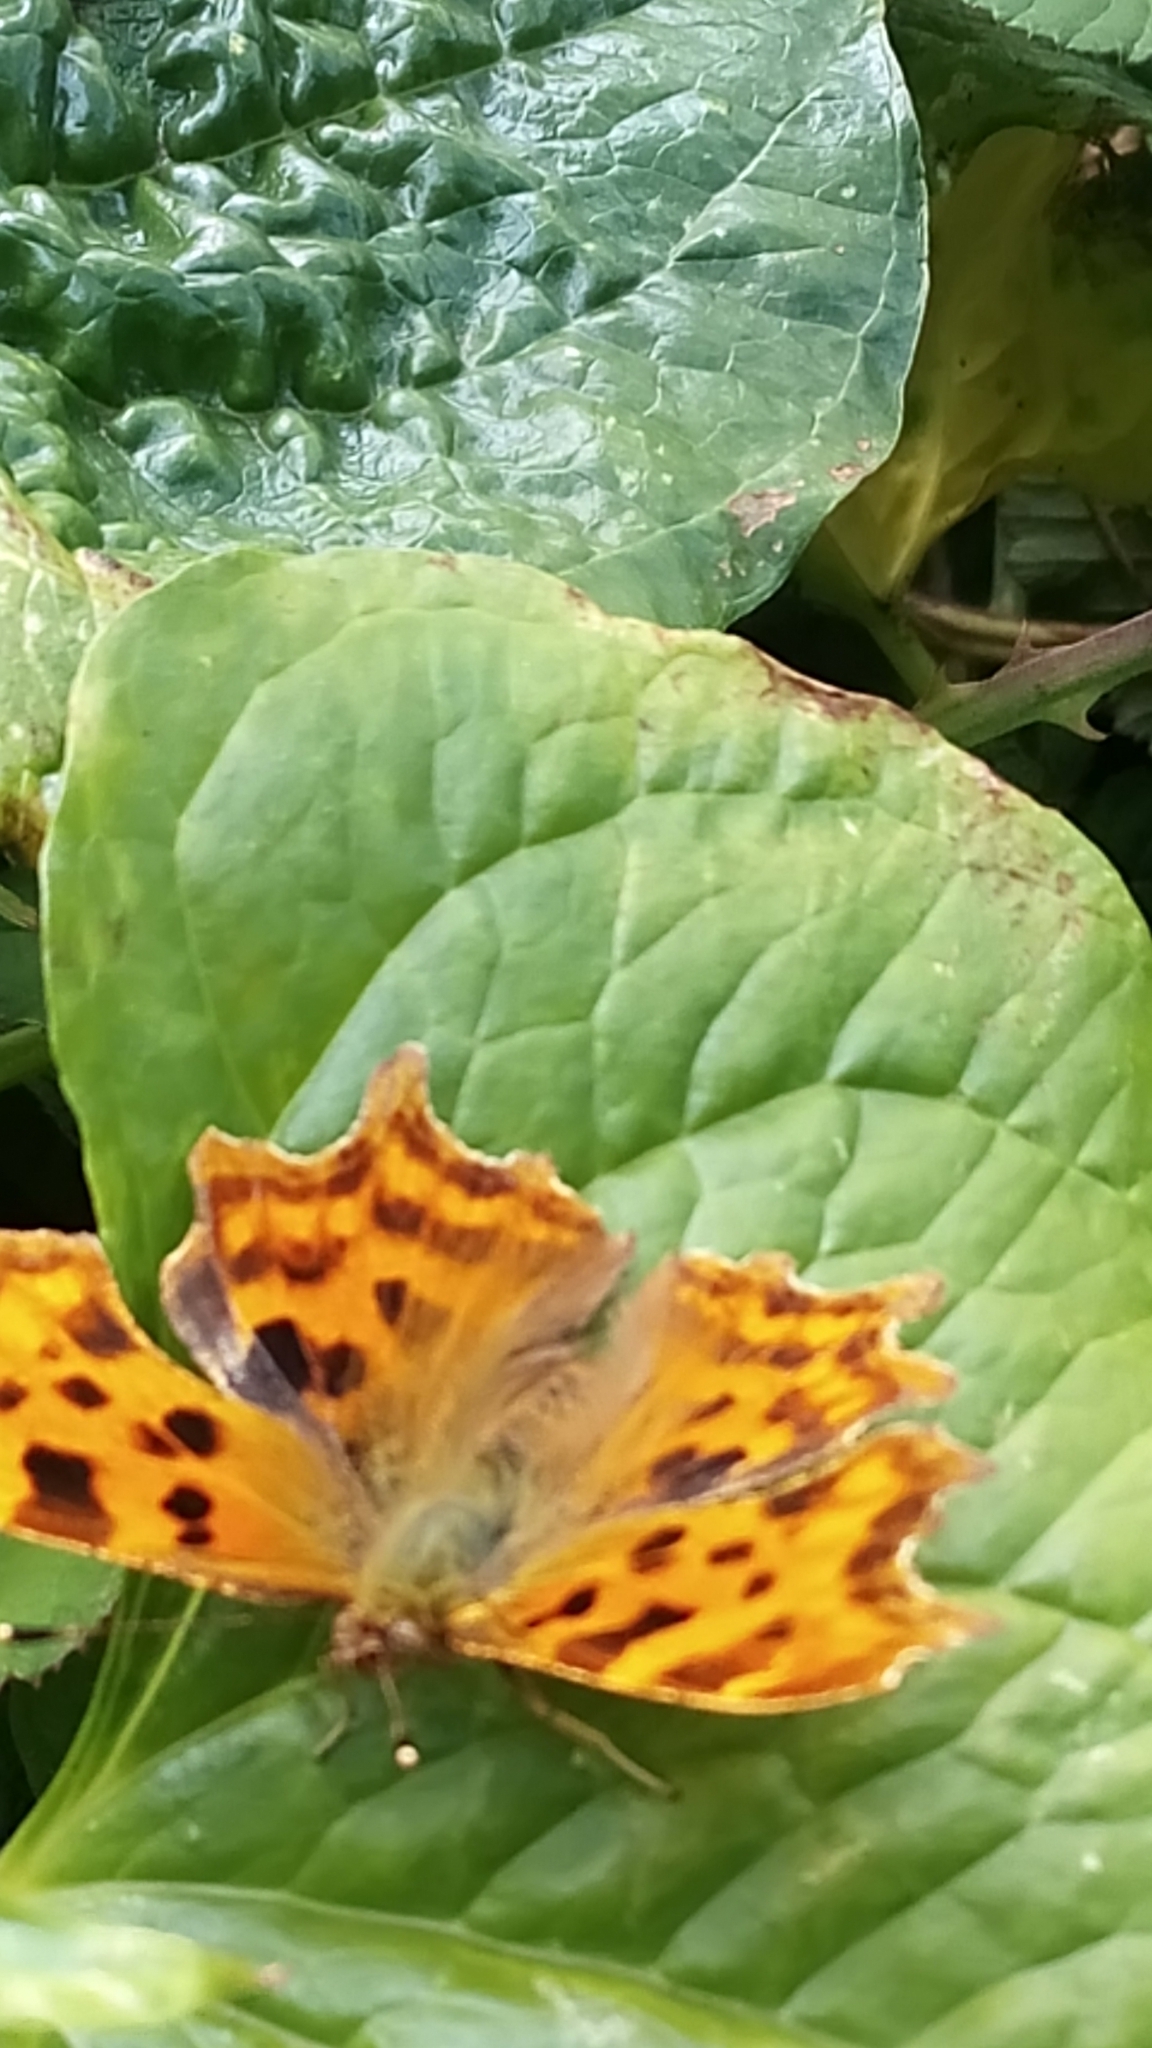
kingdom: Animalia
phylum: Arthropoda
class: Insecta
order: Lepidoptera
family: Nymphalidae
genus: Polygonia
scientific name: Polygonia c-album
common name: Comma
